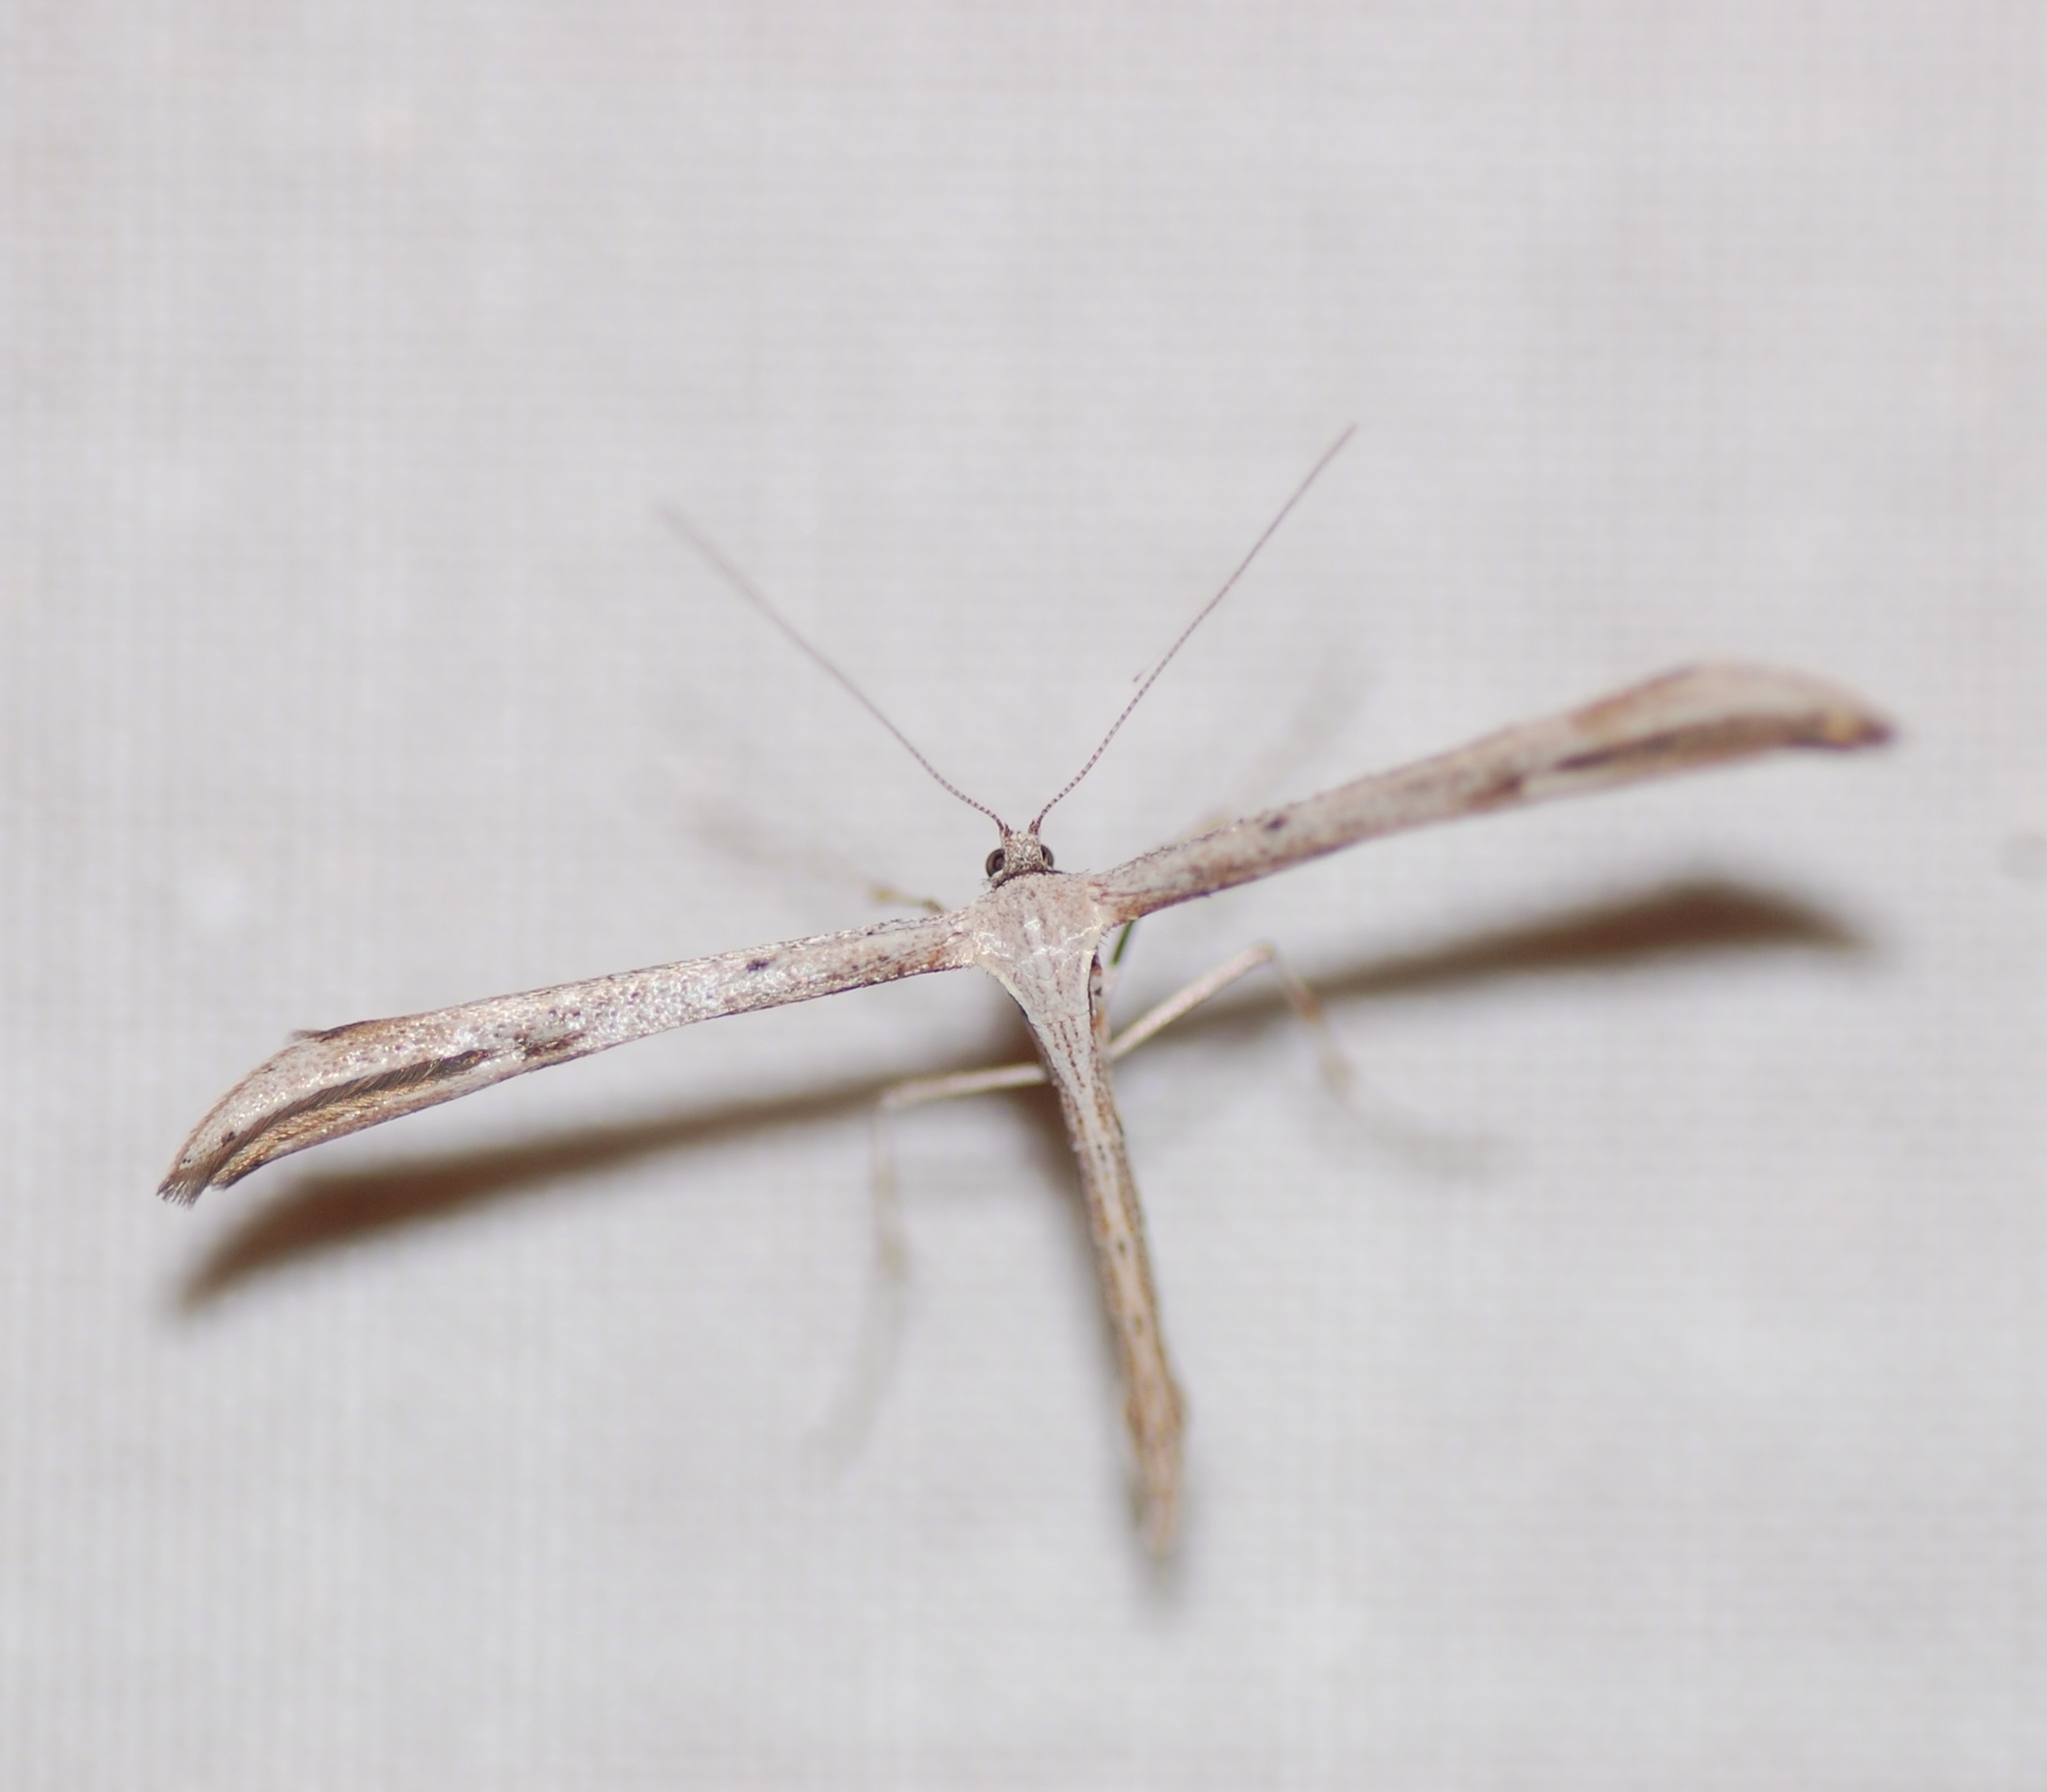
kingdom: Animalia
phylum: Arthropoda
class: Insecta
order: Lepidoptera
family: Pterophoridae
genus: Emmelina
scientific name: Emmelina monodactyla
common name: Common plume
